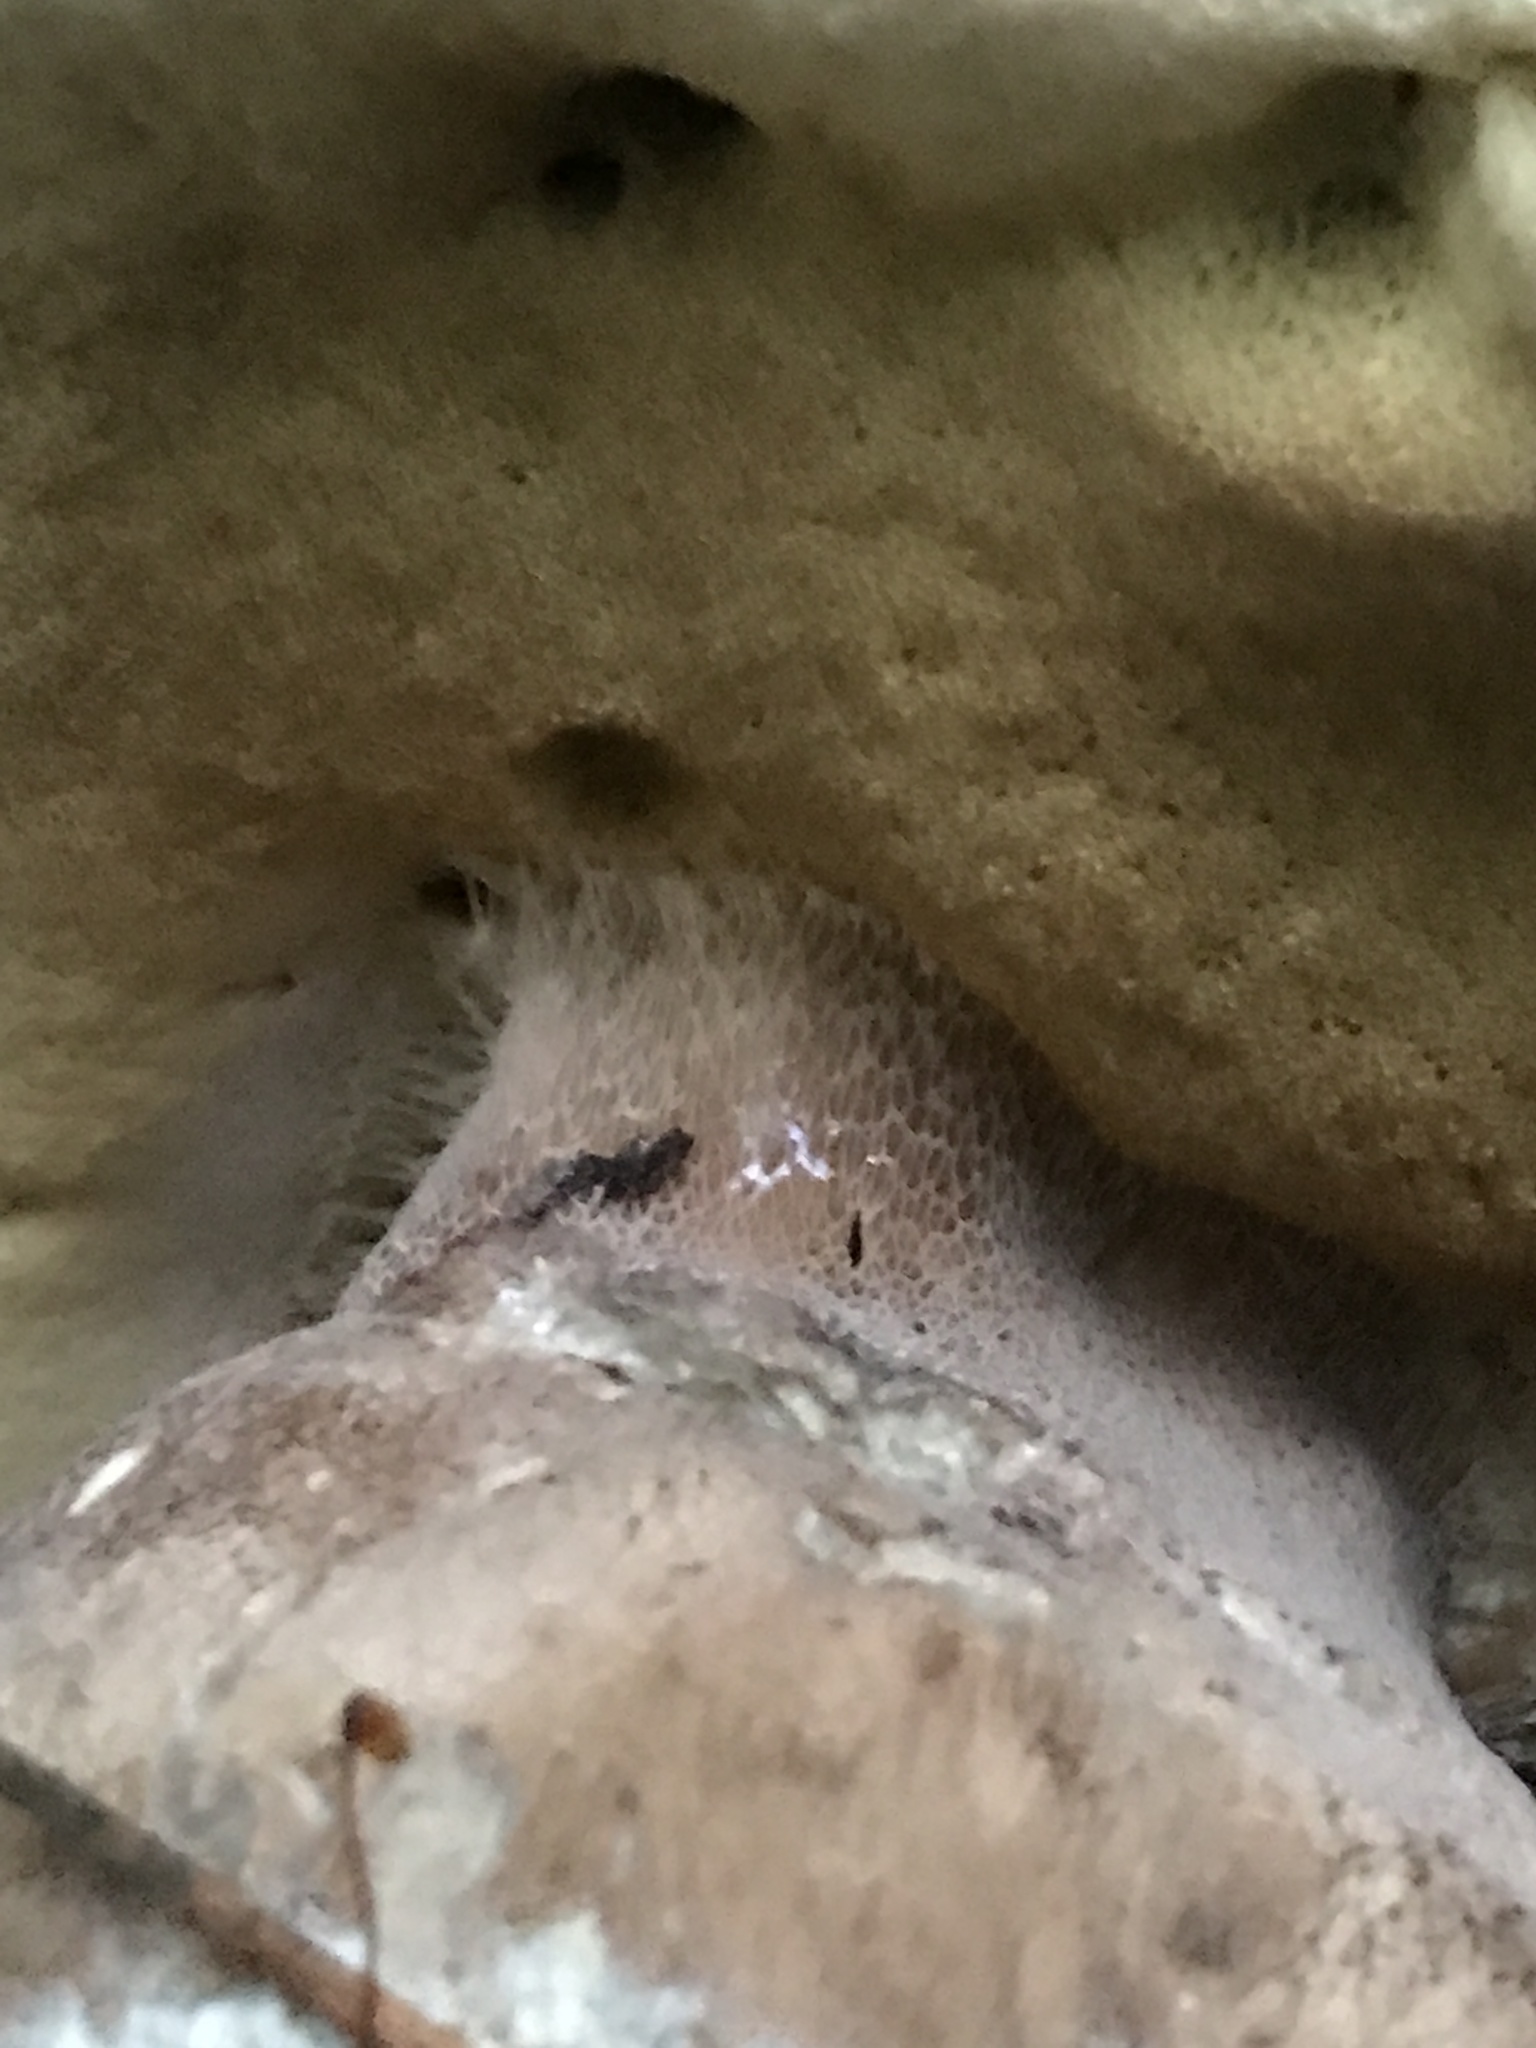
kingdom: Fungi
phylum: Basidiomycota
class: Agaricomycetes
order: Boletales
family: Boletaceae
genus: Boletus
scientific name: Boletus reticulatus
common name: Summer bolete
